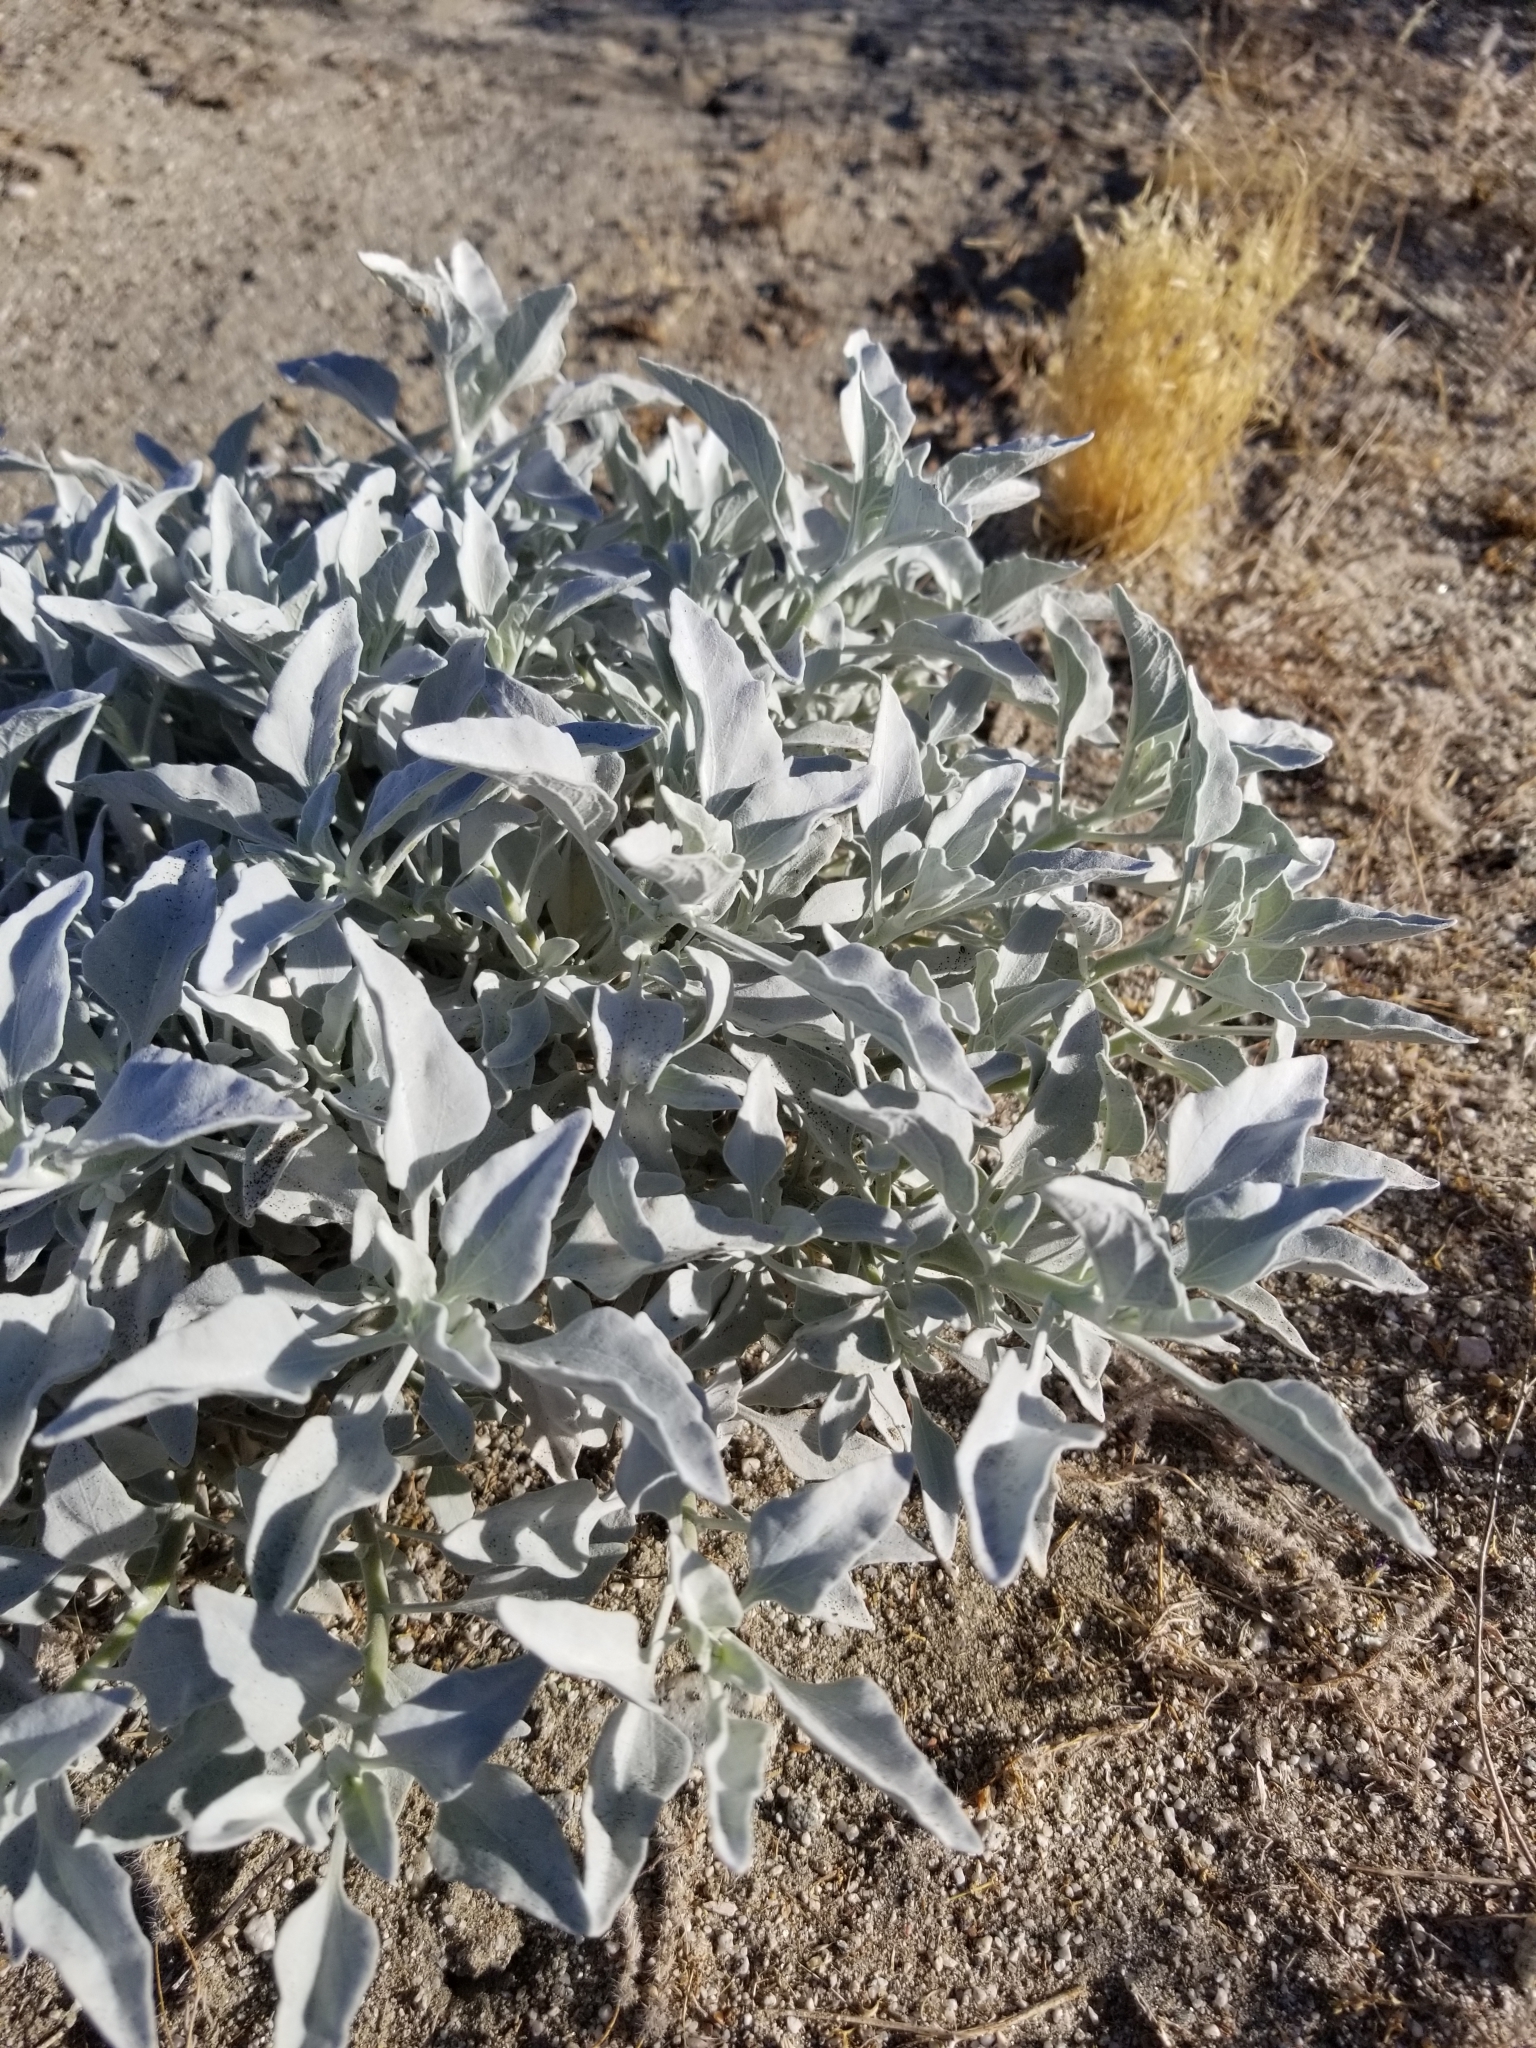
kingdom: Plantae
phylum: Tracheophyta
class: Magnoliopsida
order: Asterales
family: Asteraceae
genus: Encelia
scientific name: Encelia farinosa
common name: Brittlebush
